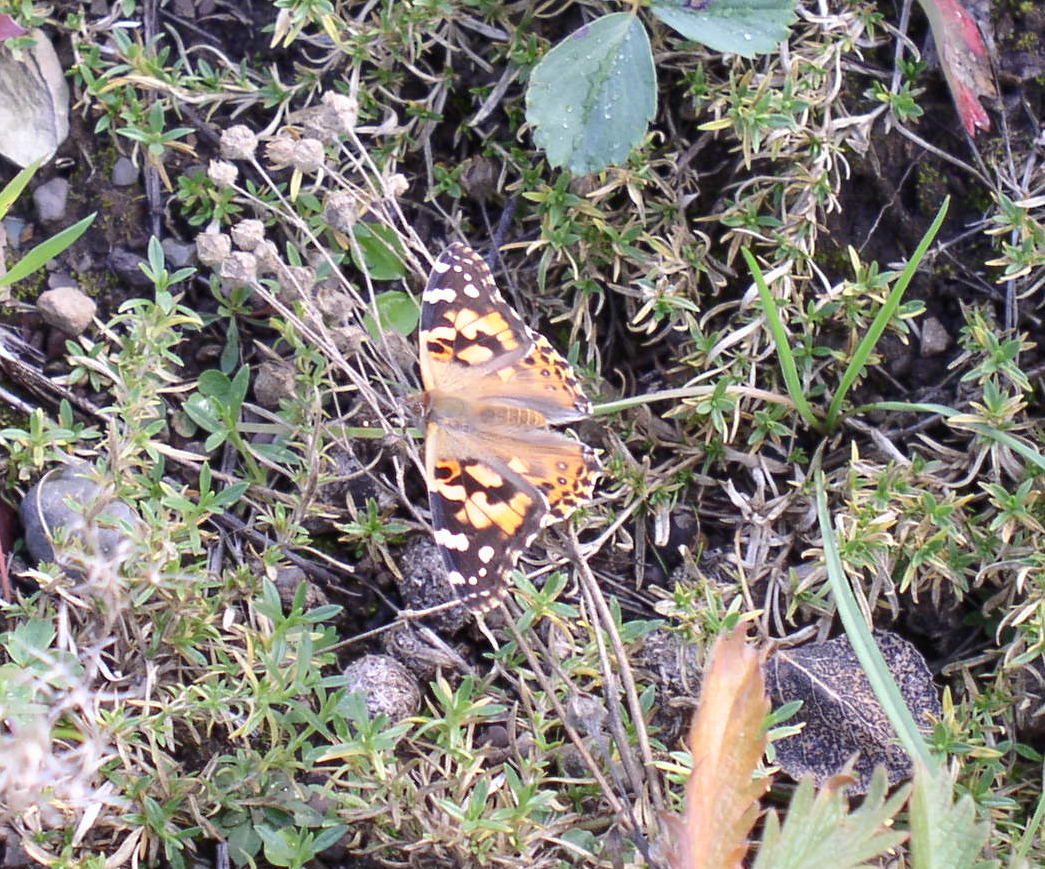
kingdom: Animalia
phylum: Arthropoda
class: Insecta
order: Lepidoptera
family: Nymphalidae
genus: Vanessa
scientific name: Vanessa cardui
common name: Painted lady
